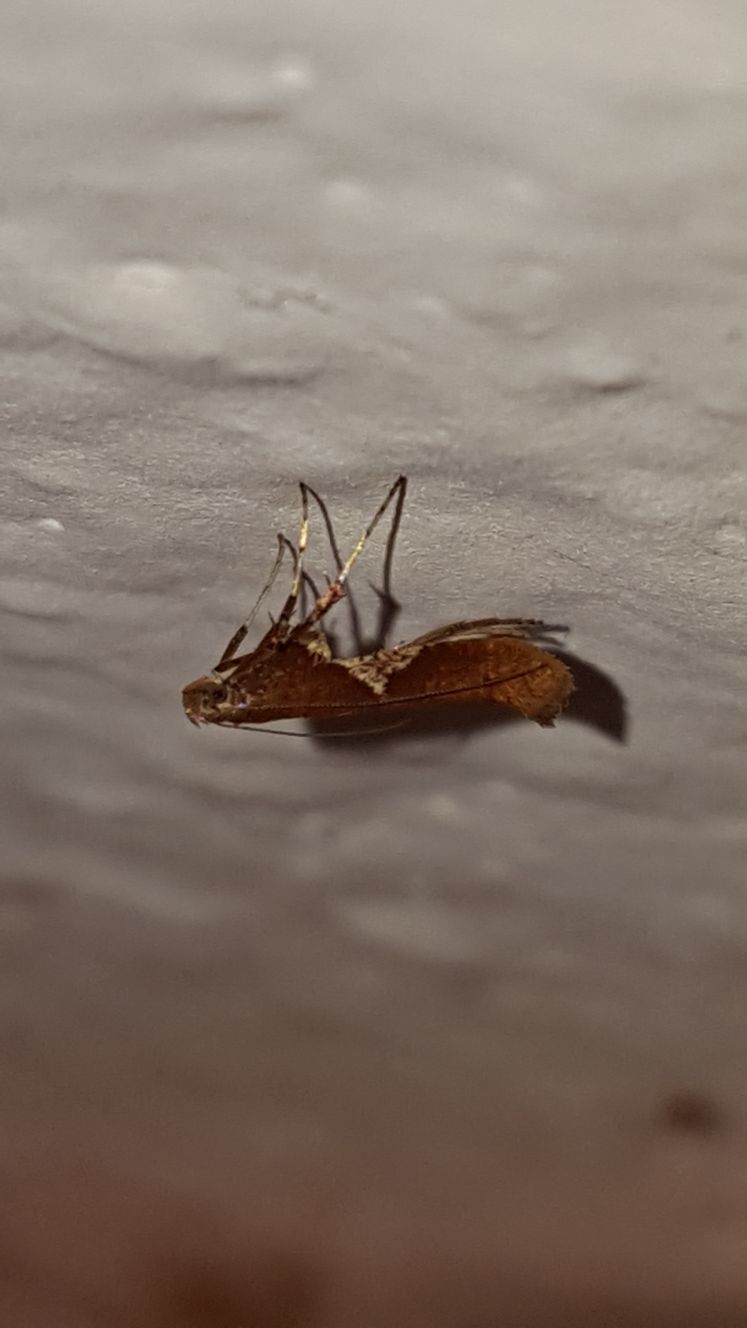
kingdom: Animalia
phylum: Arthropoda
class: Insecta
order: Lepidoptera
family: Gracillariidae
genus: Caloptilia
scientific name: Caloptilia stigmatella
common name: White-triangle slender
